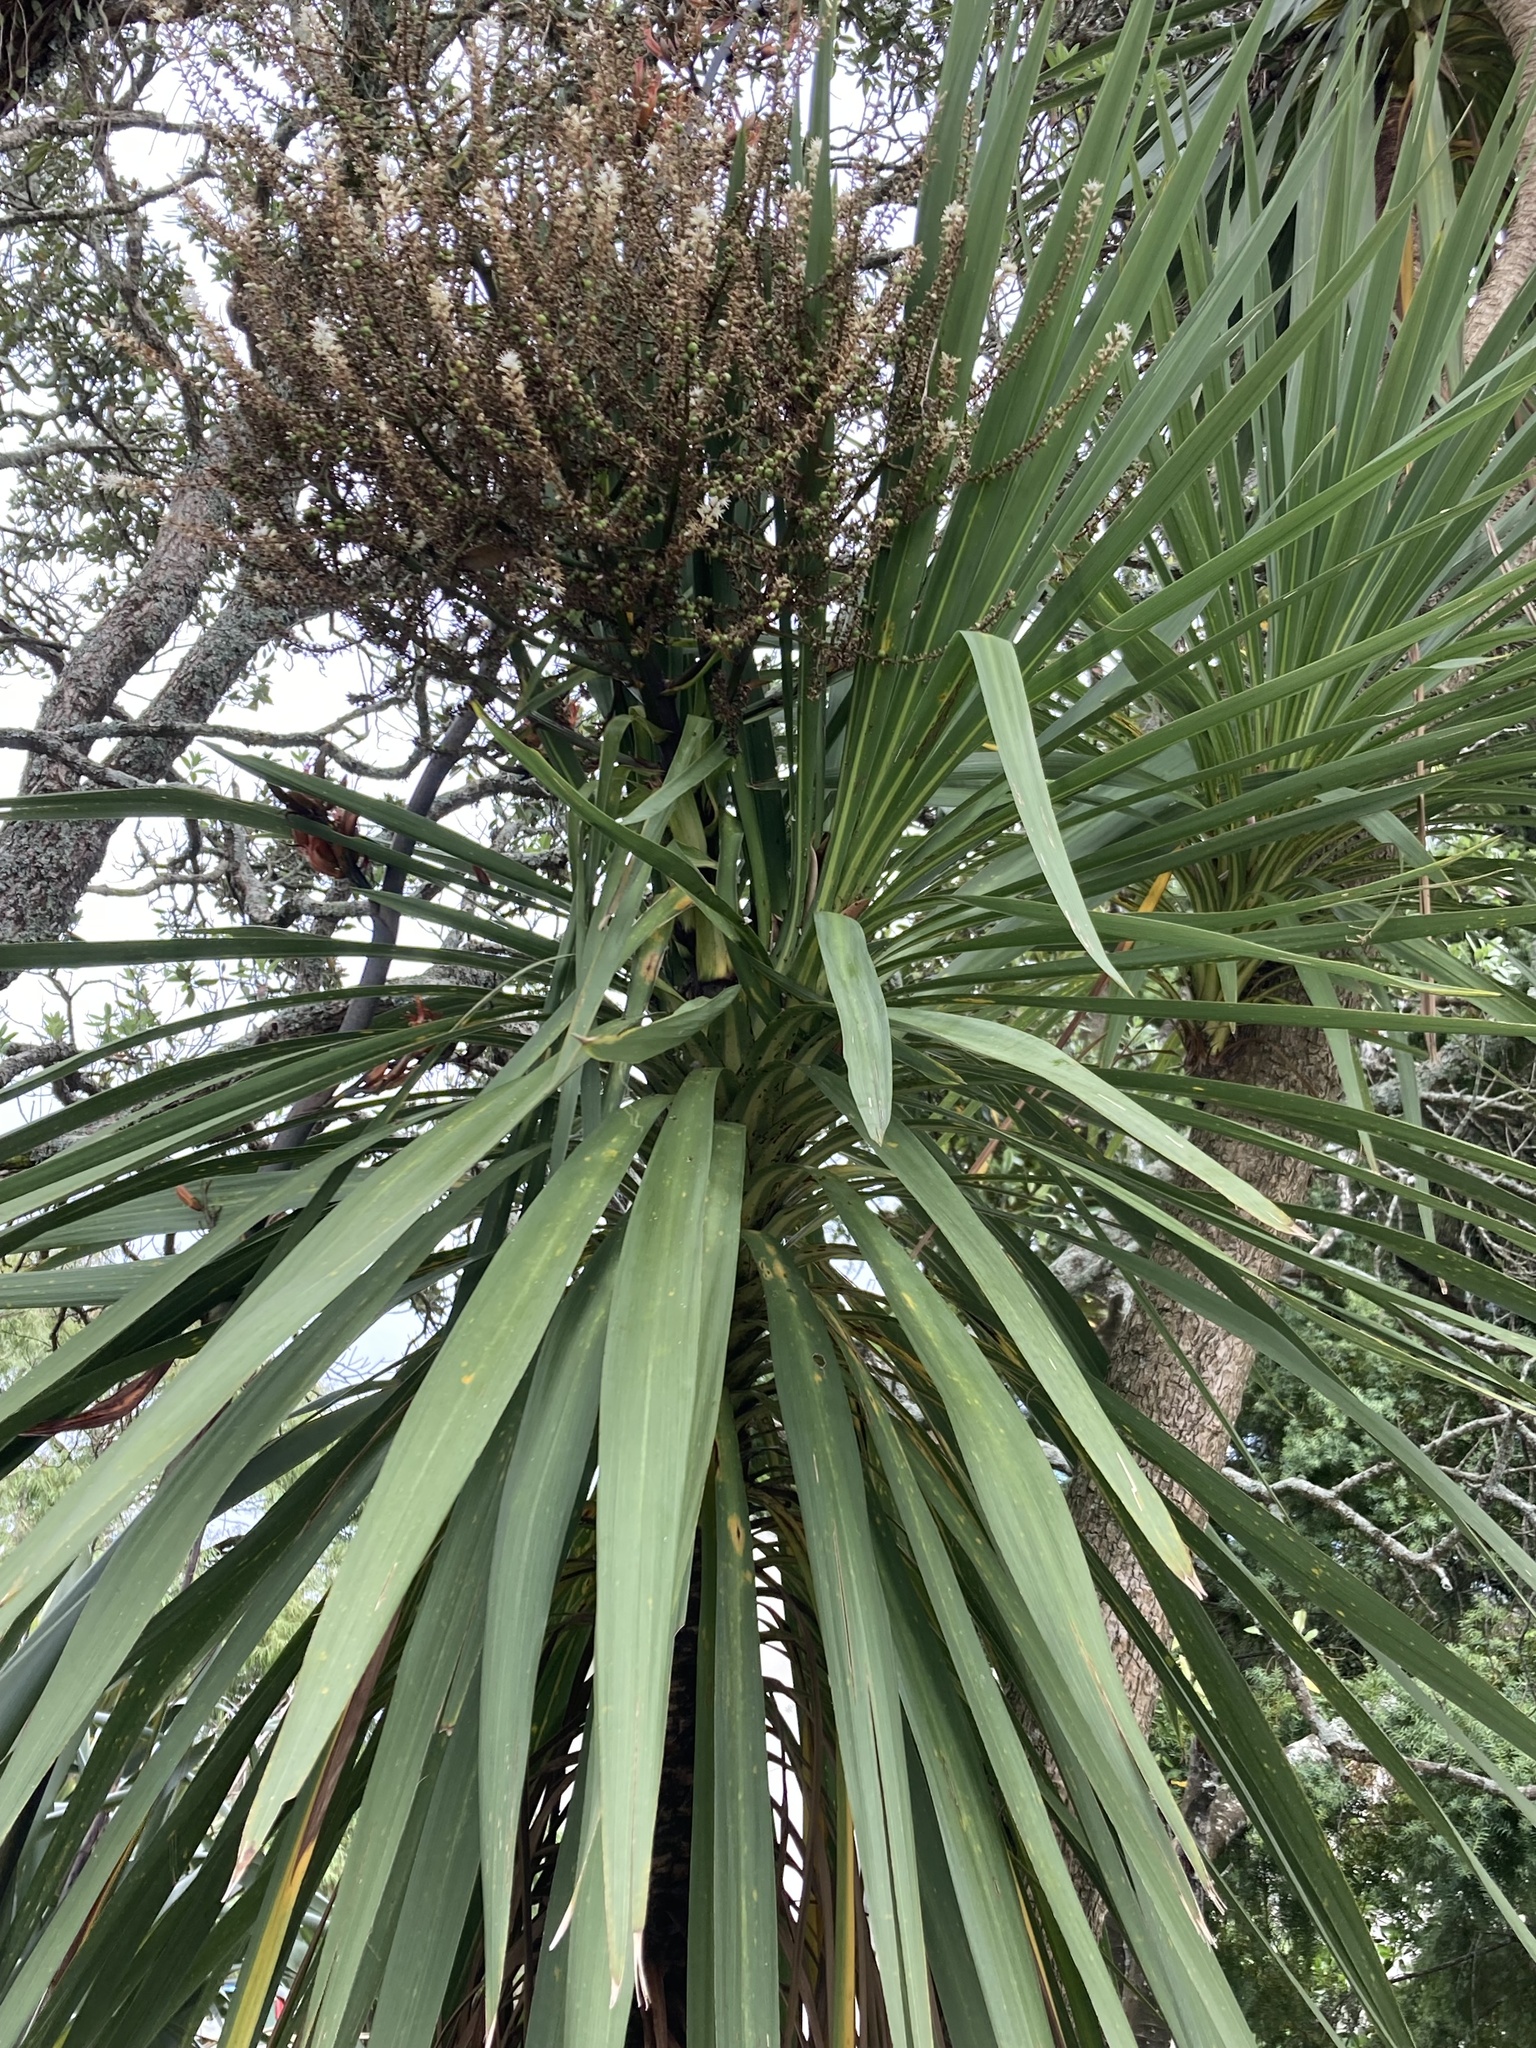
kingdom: Plantae
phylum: Tracheophyta
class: Liliopsida
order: Asparagales
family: Asparagaceae
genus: Cordyline
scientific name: Cordyline australis
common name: Cabbage-palm
